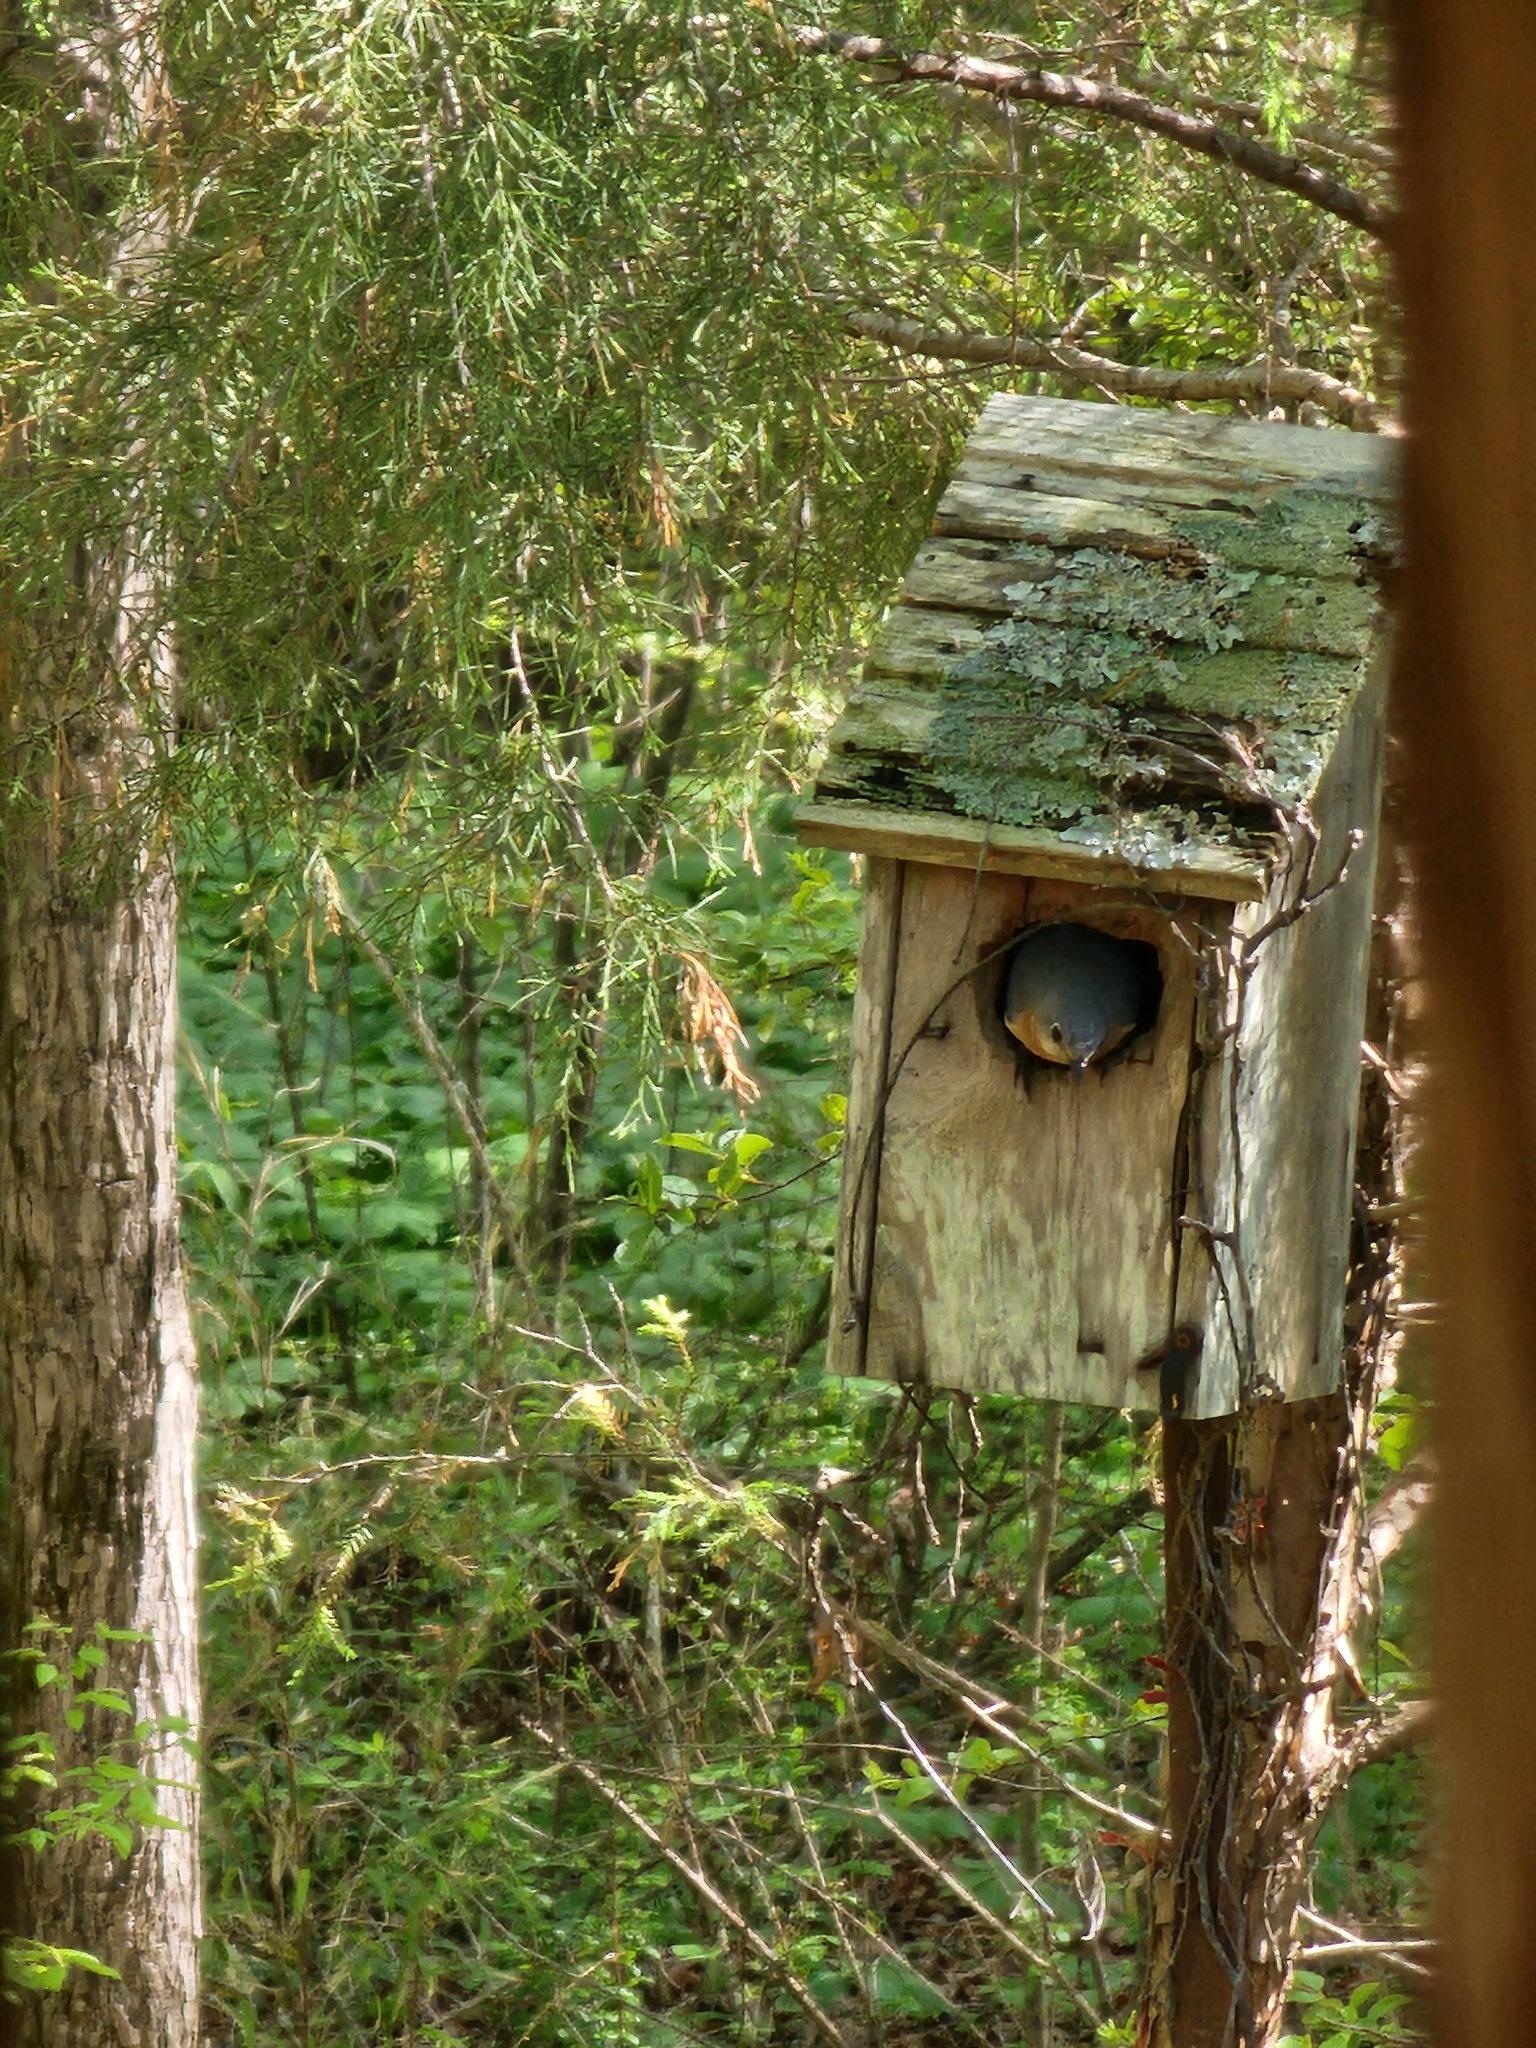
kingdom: Animalia
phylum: Chordata
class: Aves
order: Passeriformes
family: Turdidae
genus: Sialia
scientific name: Sialia sialis
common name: Eastern bluebird
